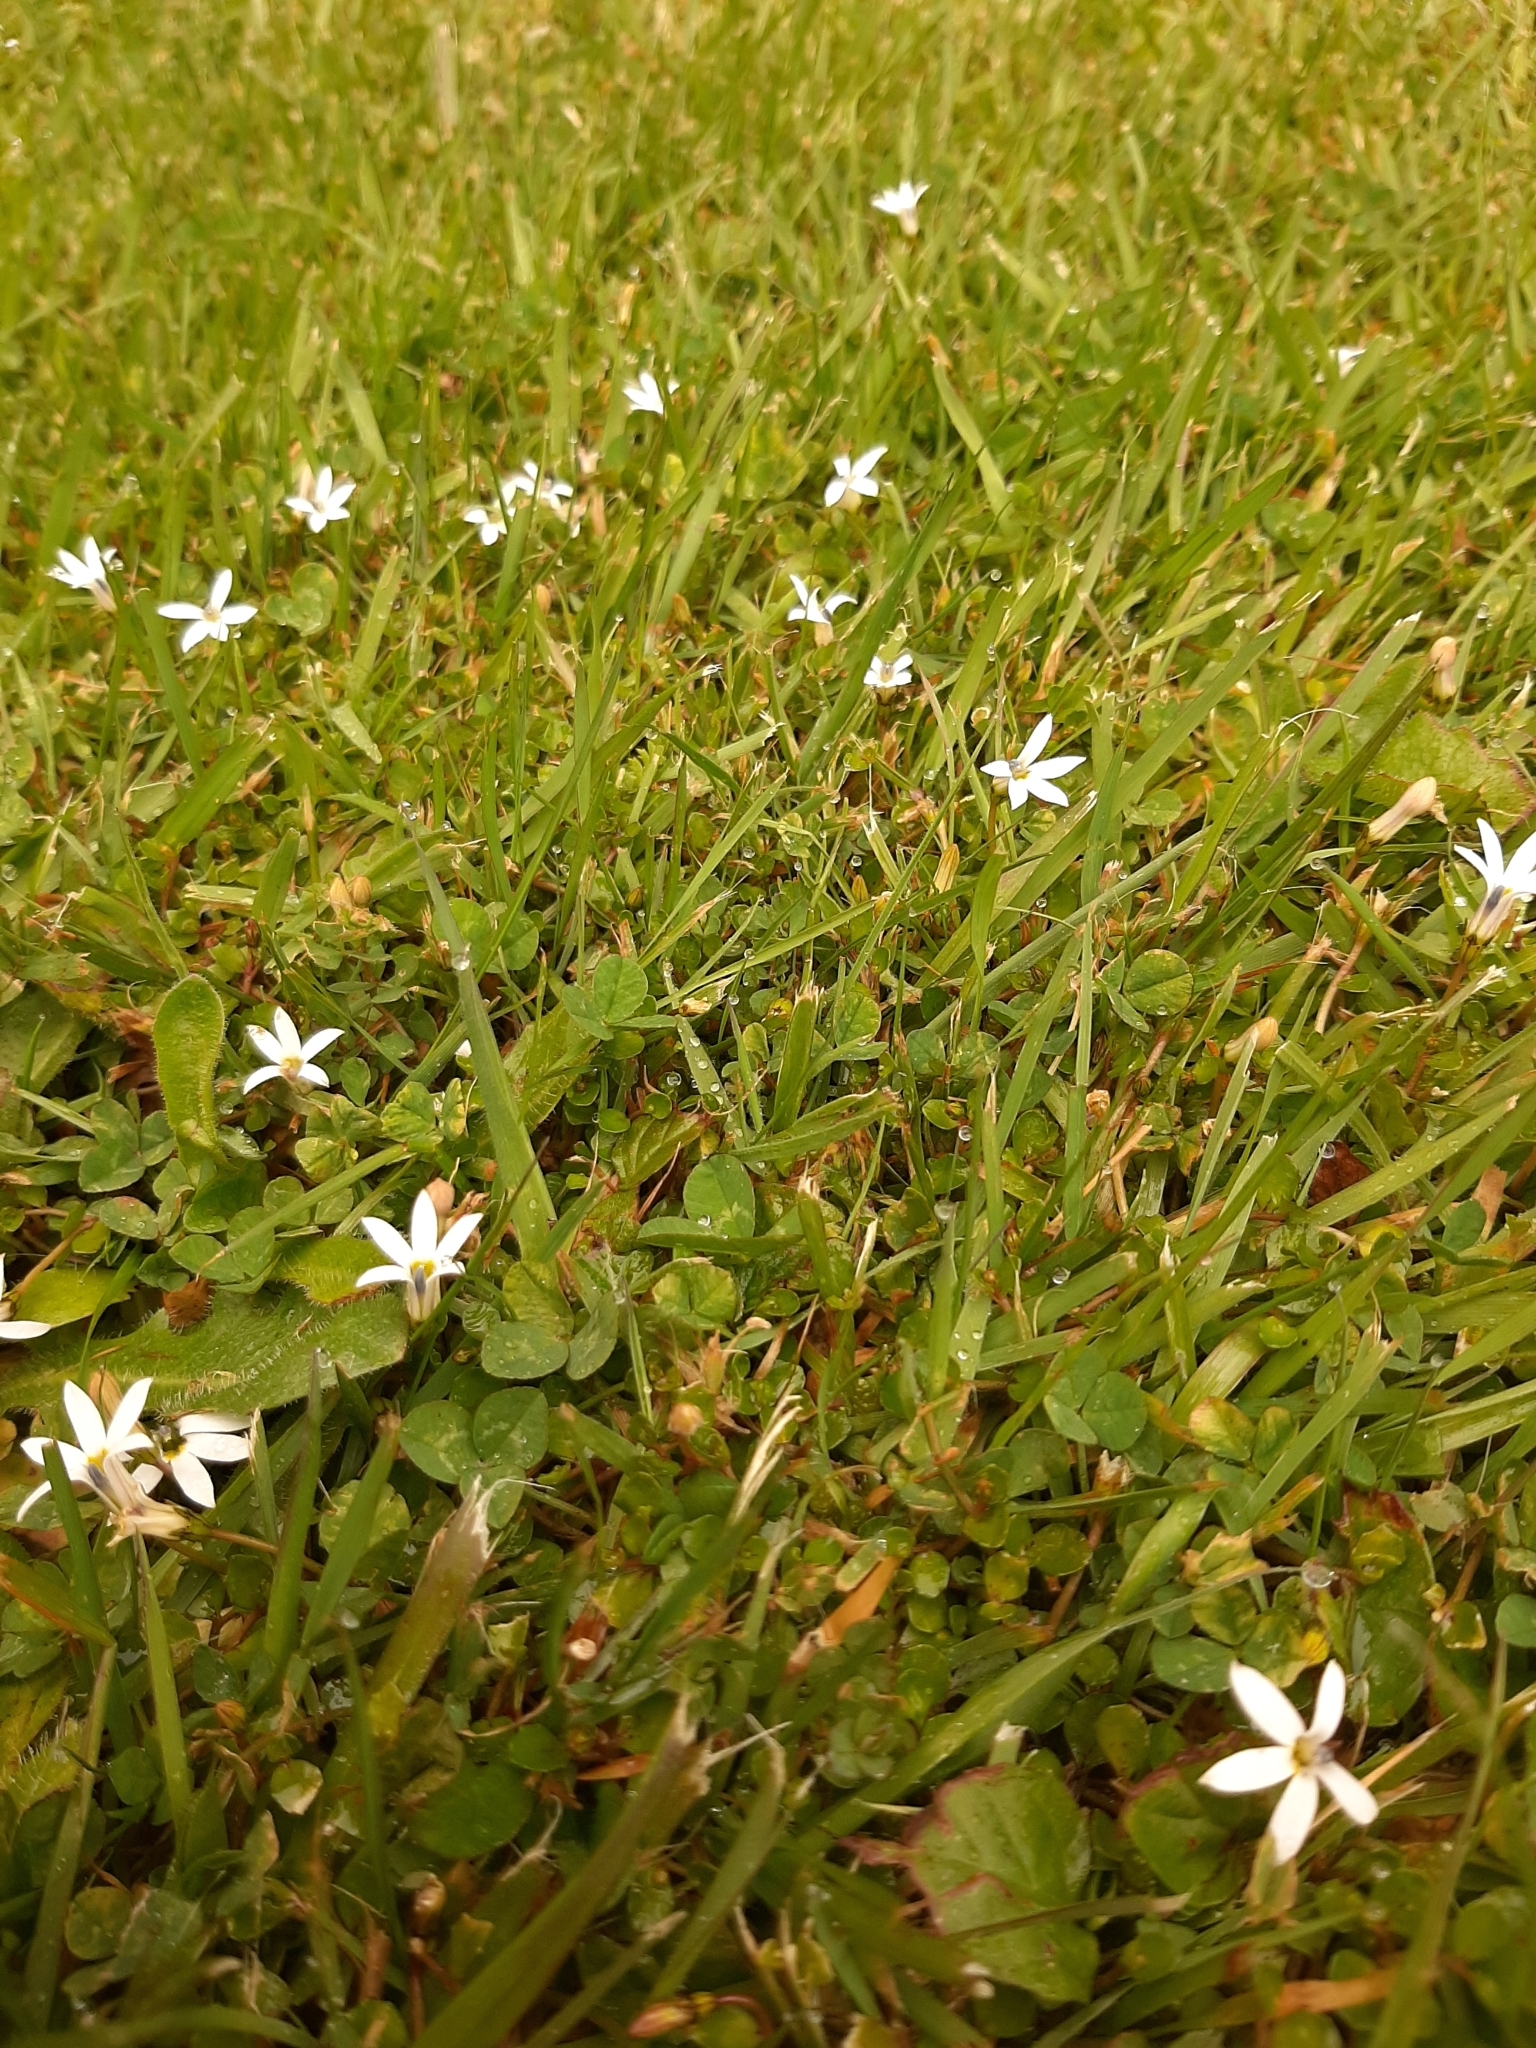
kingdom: Plantae
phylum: Tracheophyta
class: Magnoliopsida
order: Asterales
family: Campanulaceae
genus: Lobelia
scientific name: Lobelia angulata
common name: Lawn lobelia
